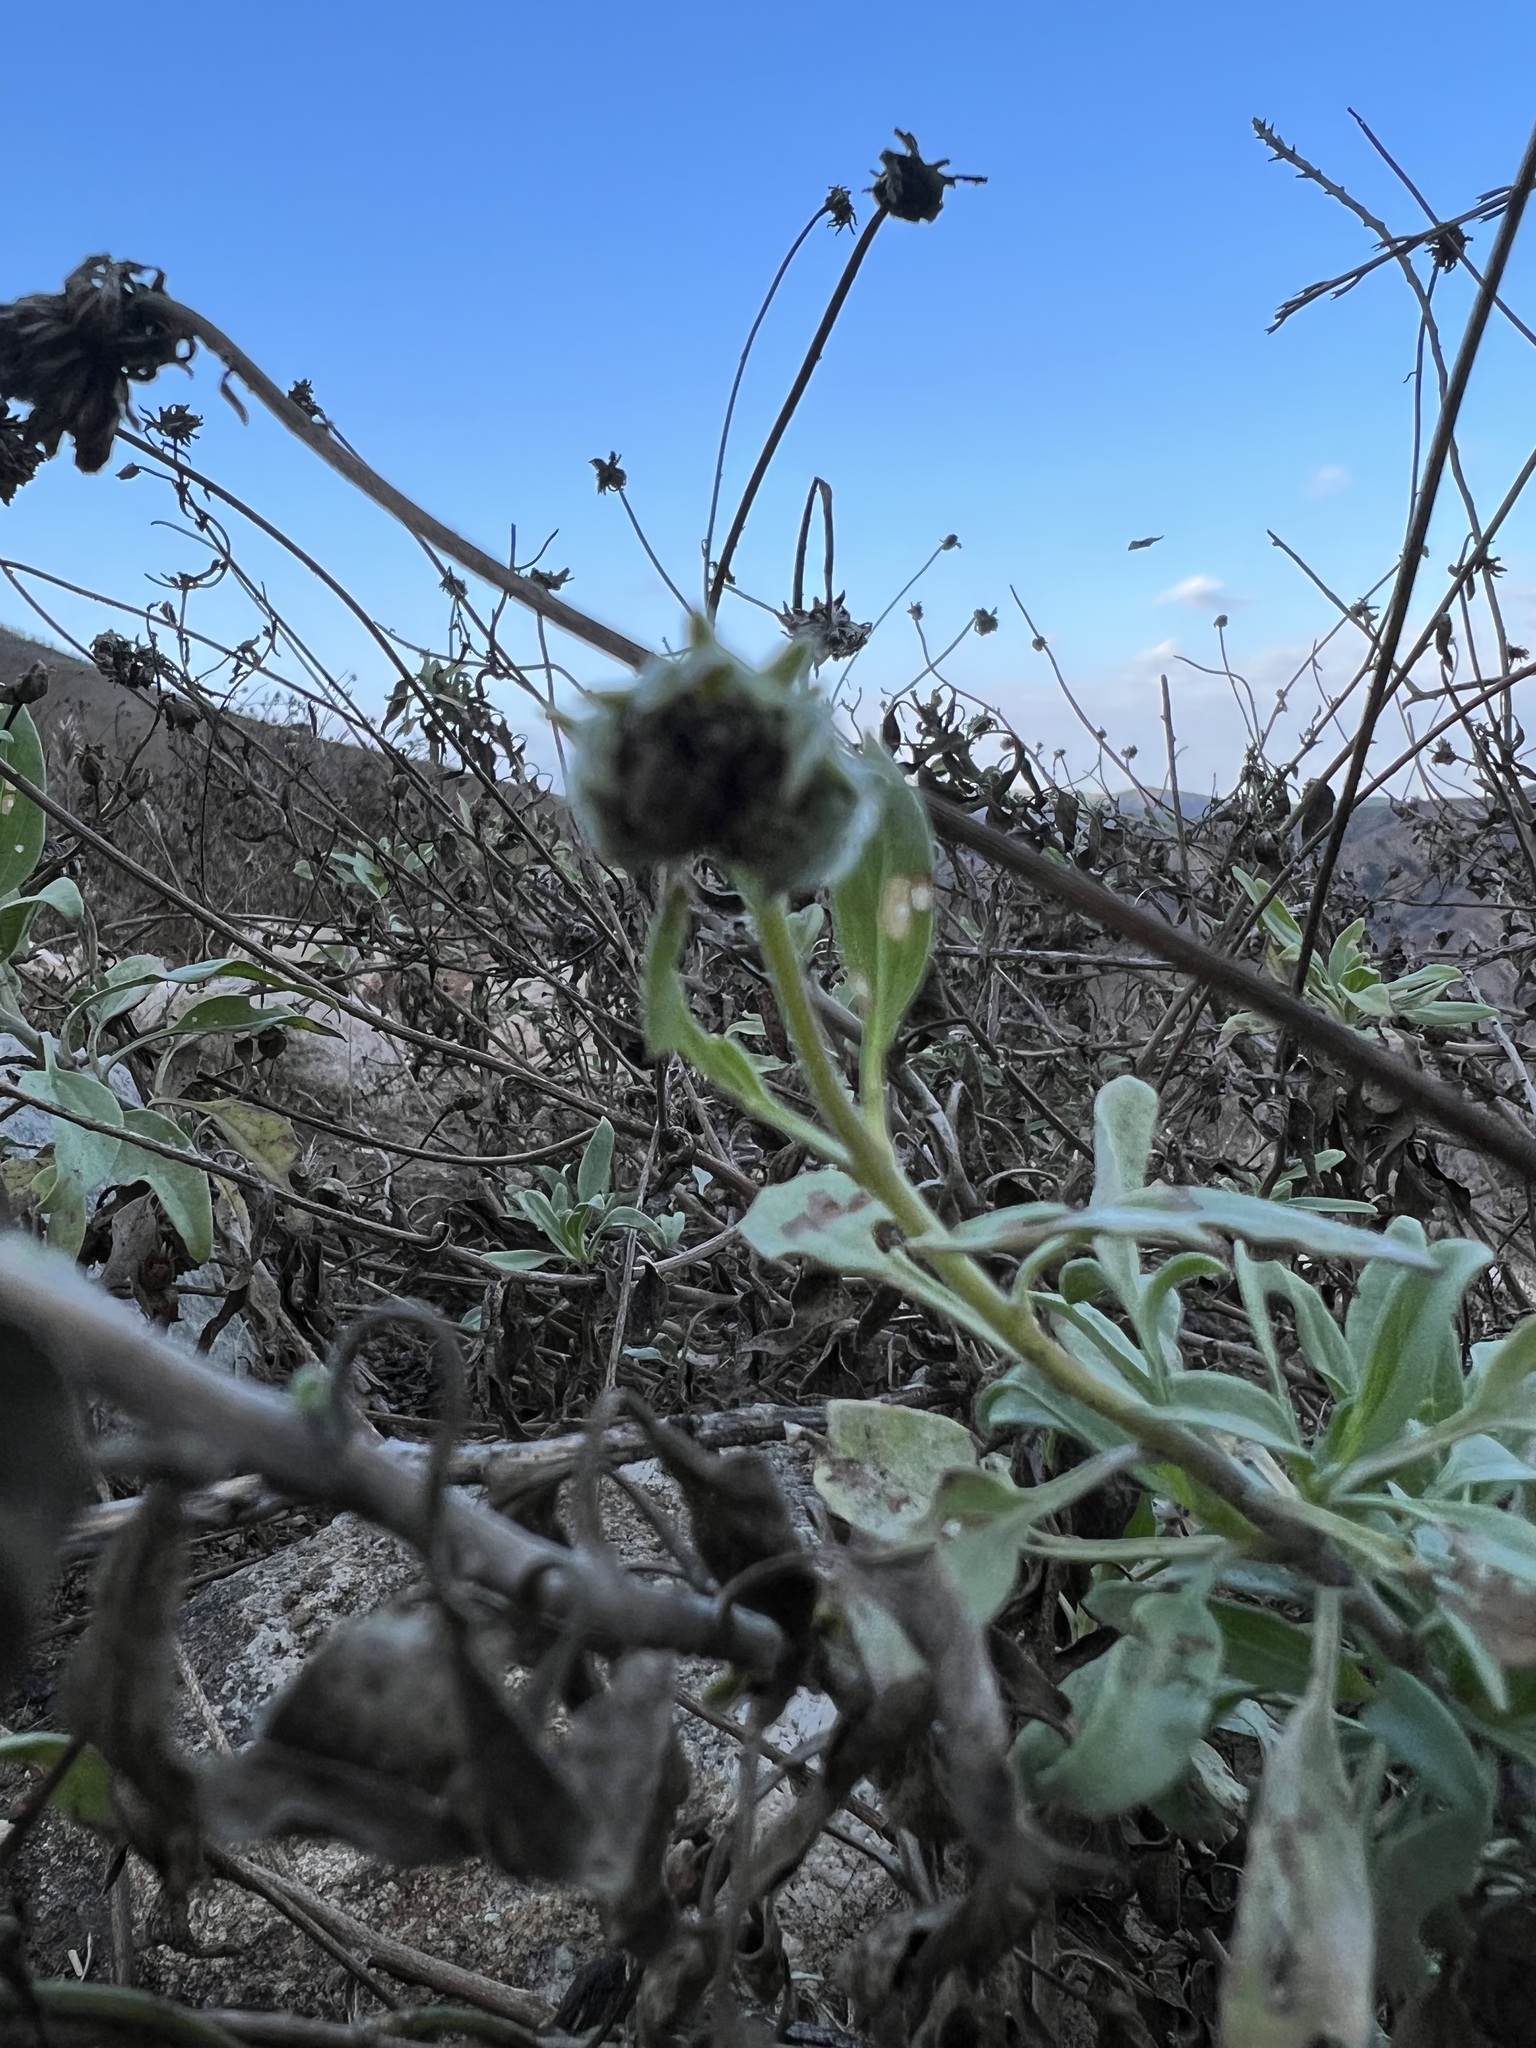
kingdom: Plantae
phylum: Tracheophyta
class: Magnoliopsida
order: Asterales
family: Asteraceae
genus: Encelia
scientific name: Encelia californica
